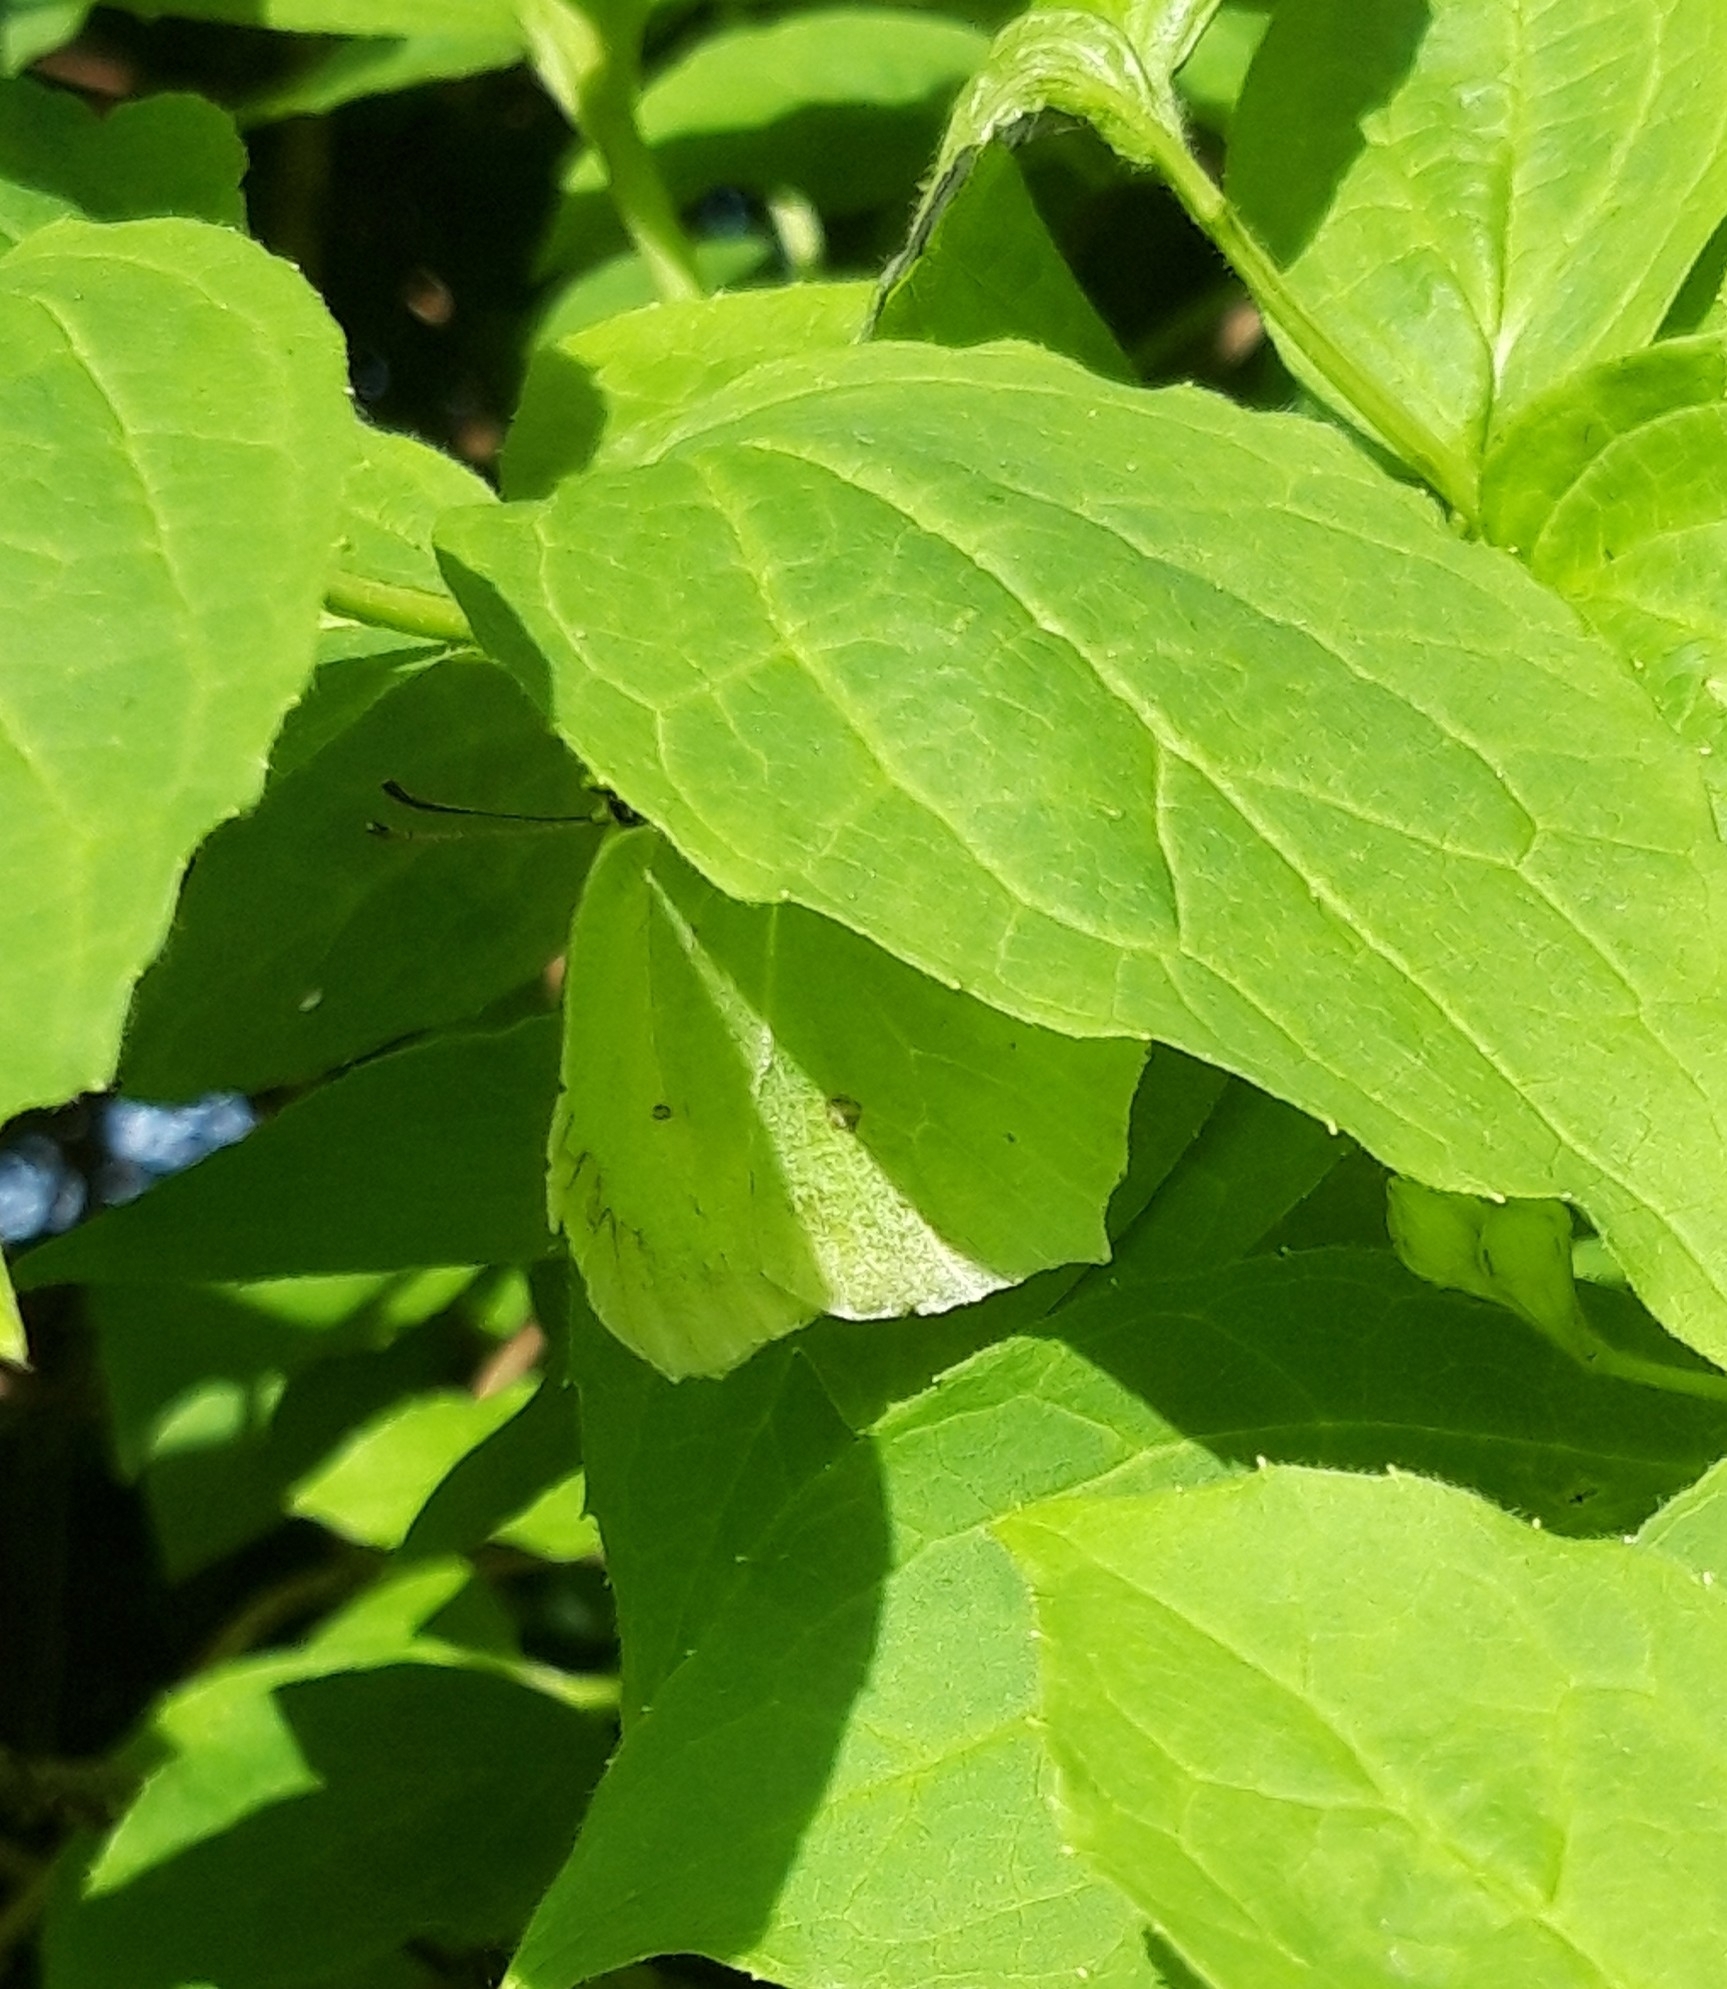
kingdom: Animalia
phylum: Arthropoda
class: Insecta
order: Lepidoptera
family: Pieridae
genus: Gonepteryx
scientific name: Gonepteryx rhamni
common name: Brimstone
